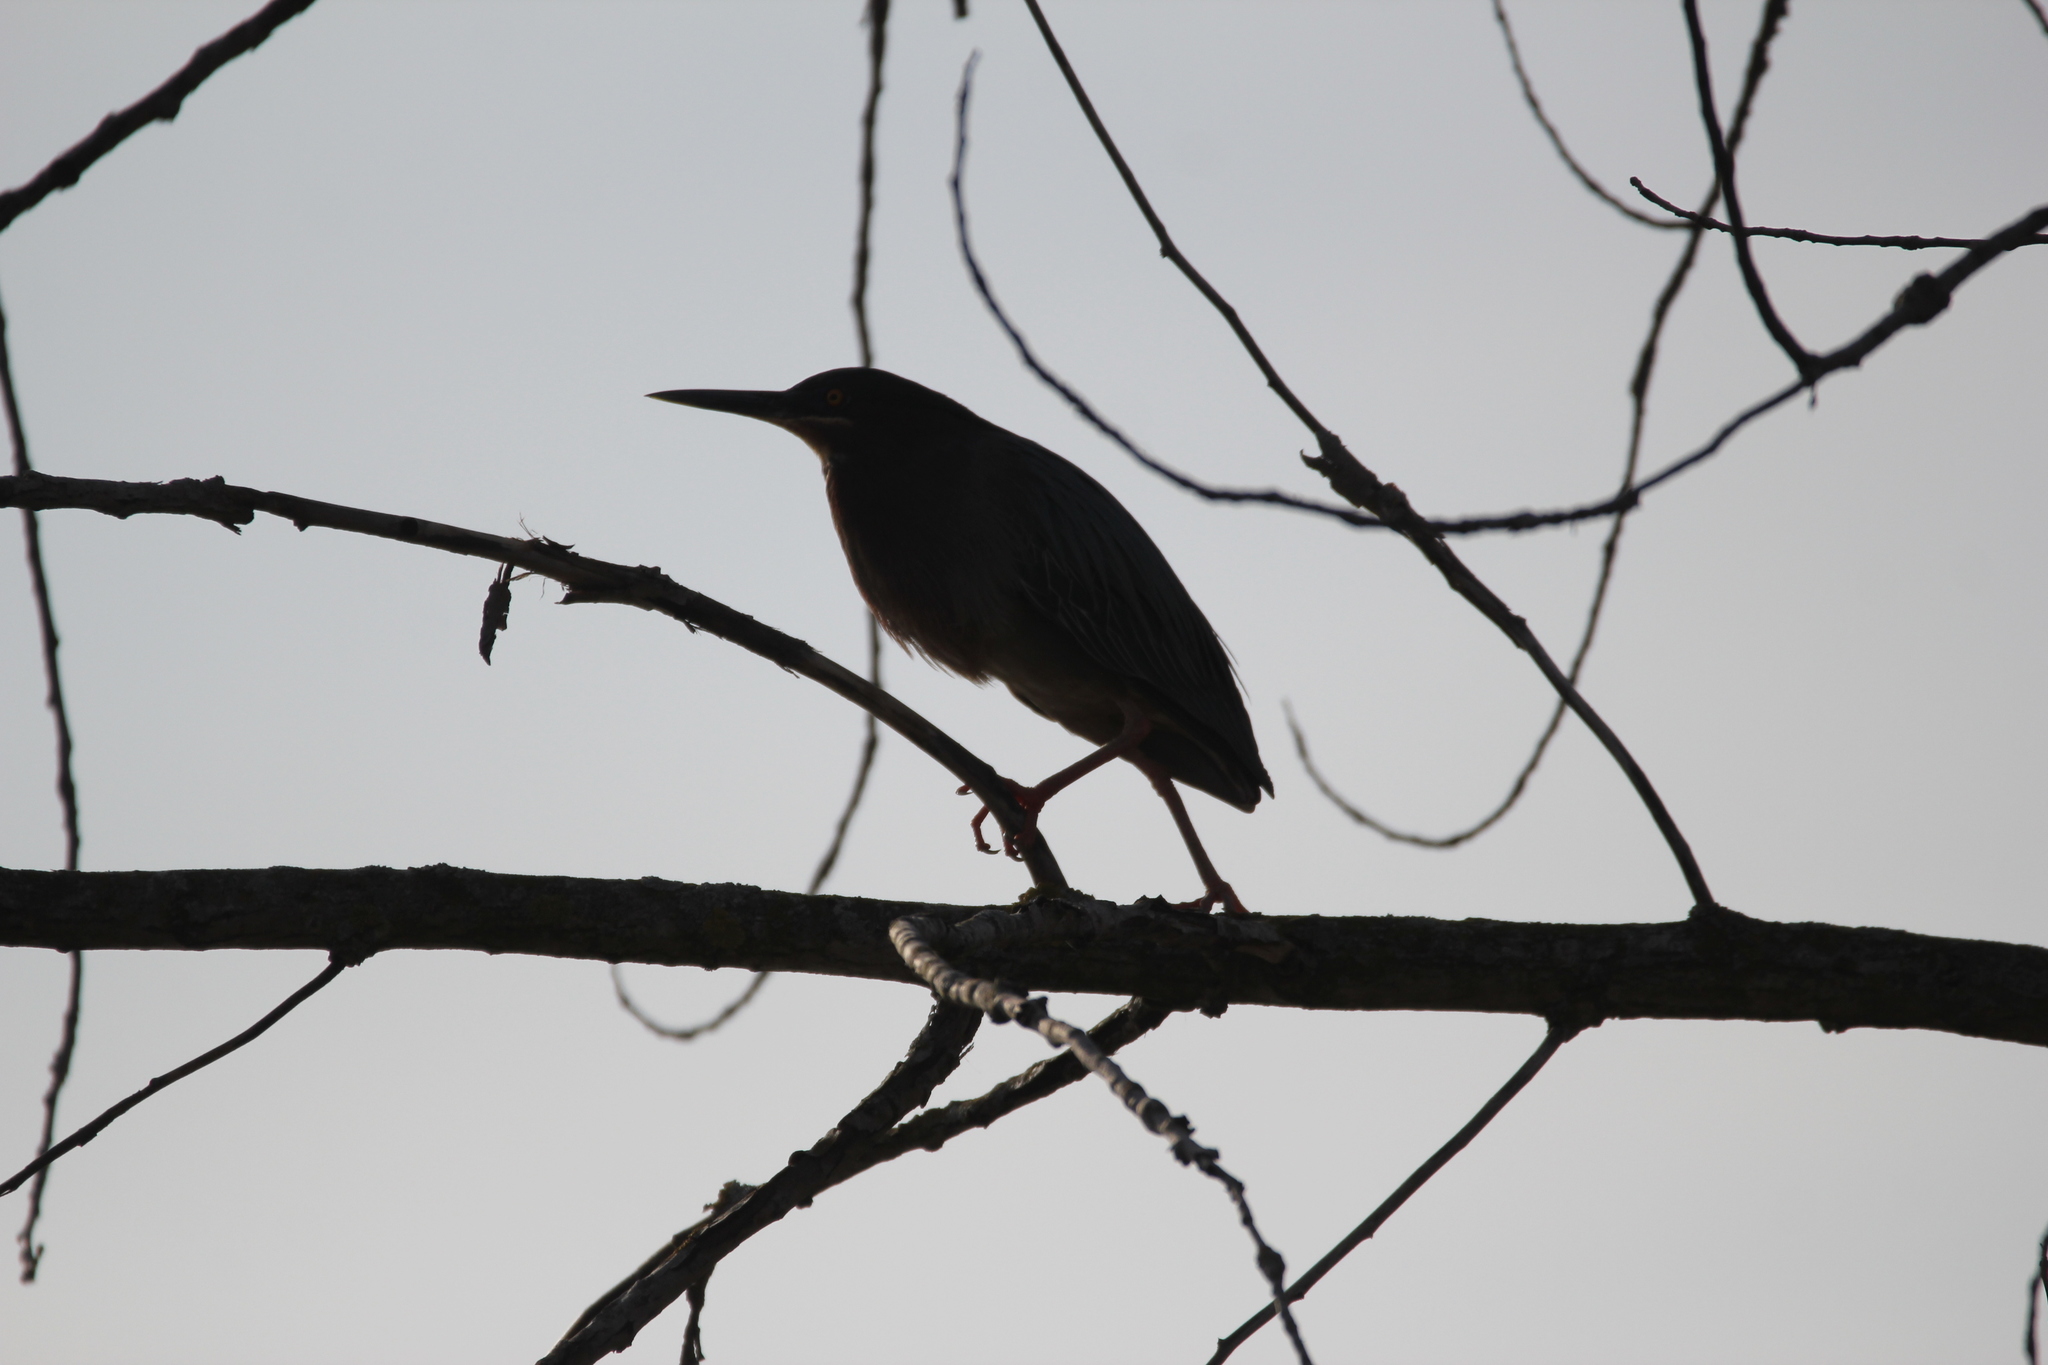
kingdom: Animalia
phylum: Chordata
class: Aves
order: Pelecaniformes
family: Ardeidae
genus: Butorides
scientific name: Butorides virescens
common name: Green heron
